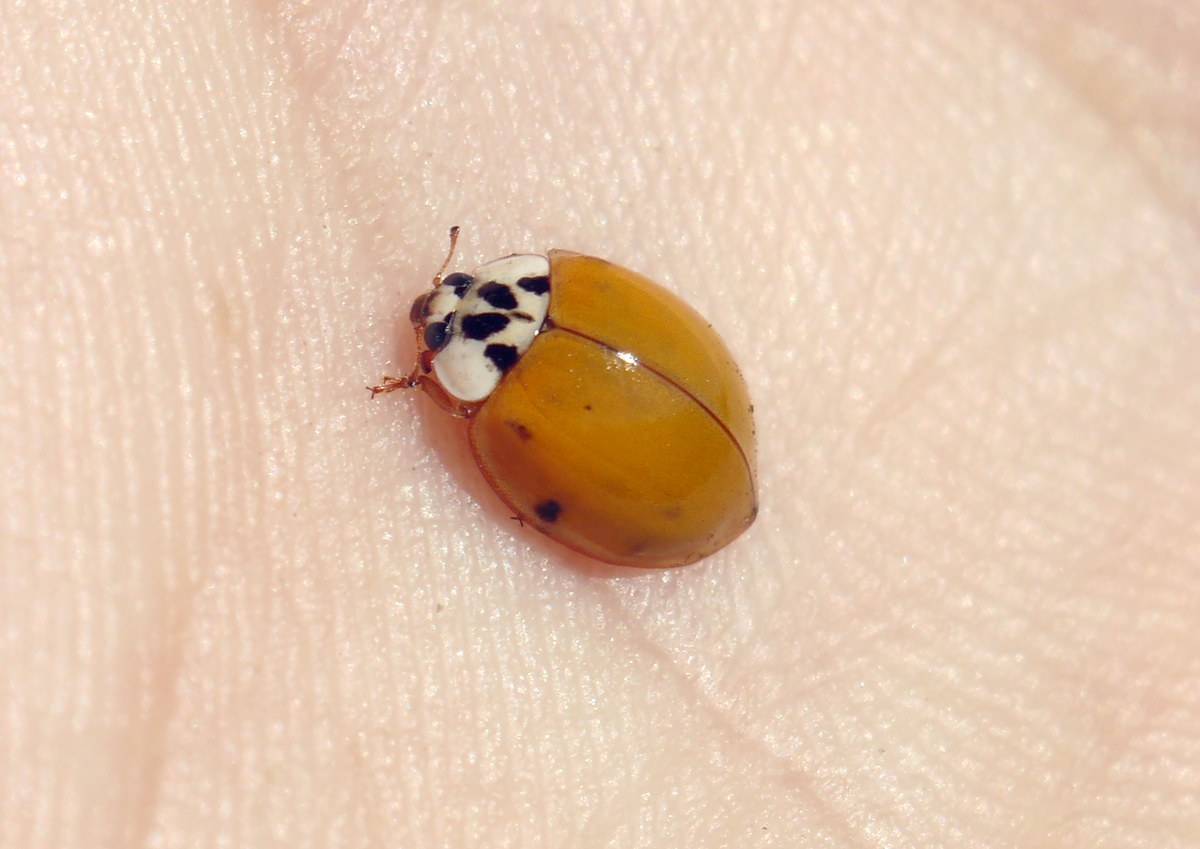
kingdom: Animalia
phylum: Arthropoda
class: Insecta
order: Coleoptera
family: Coccinellidae
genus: Harmonia
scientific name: Harmonia axyridis
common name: Harlequin ladybird
